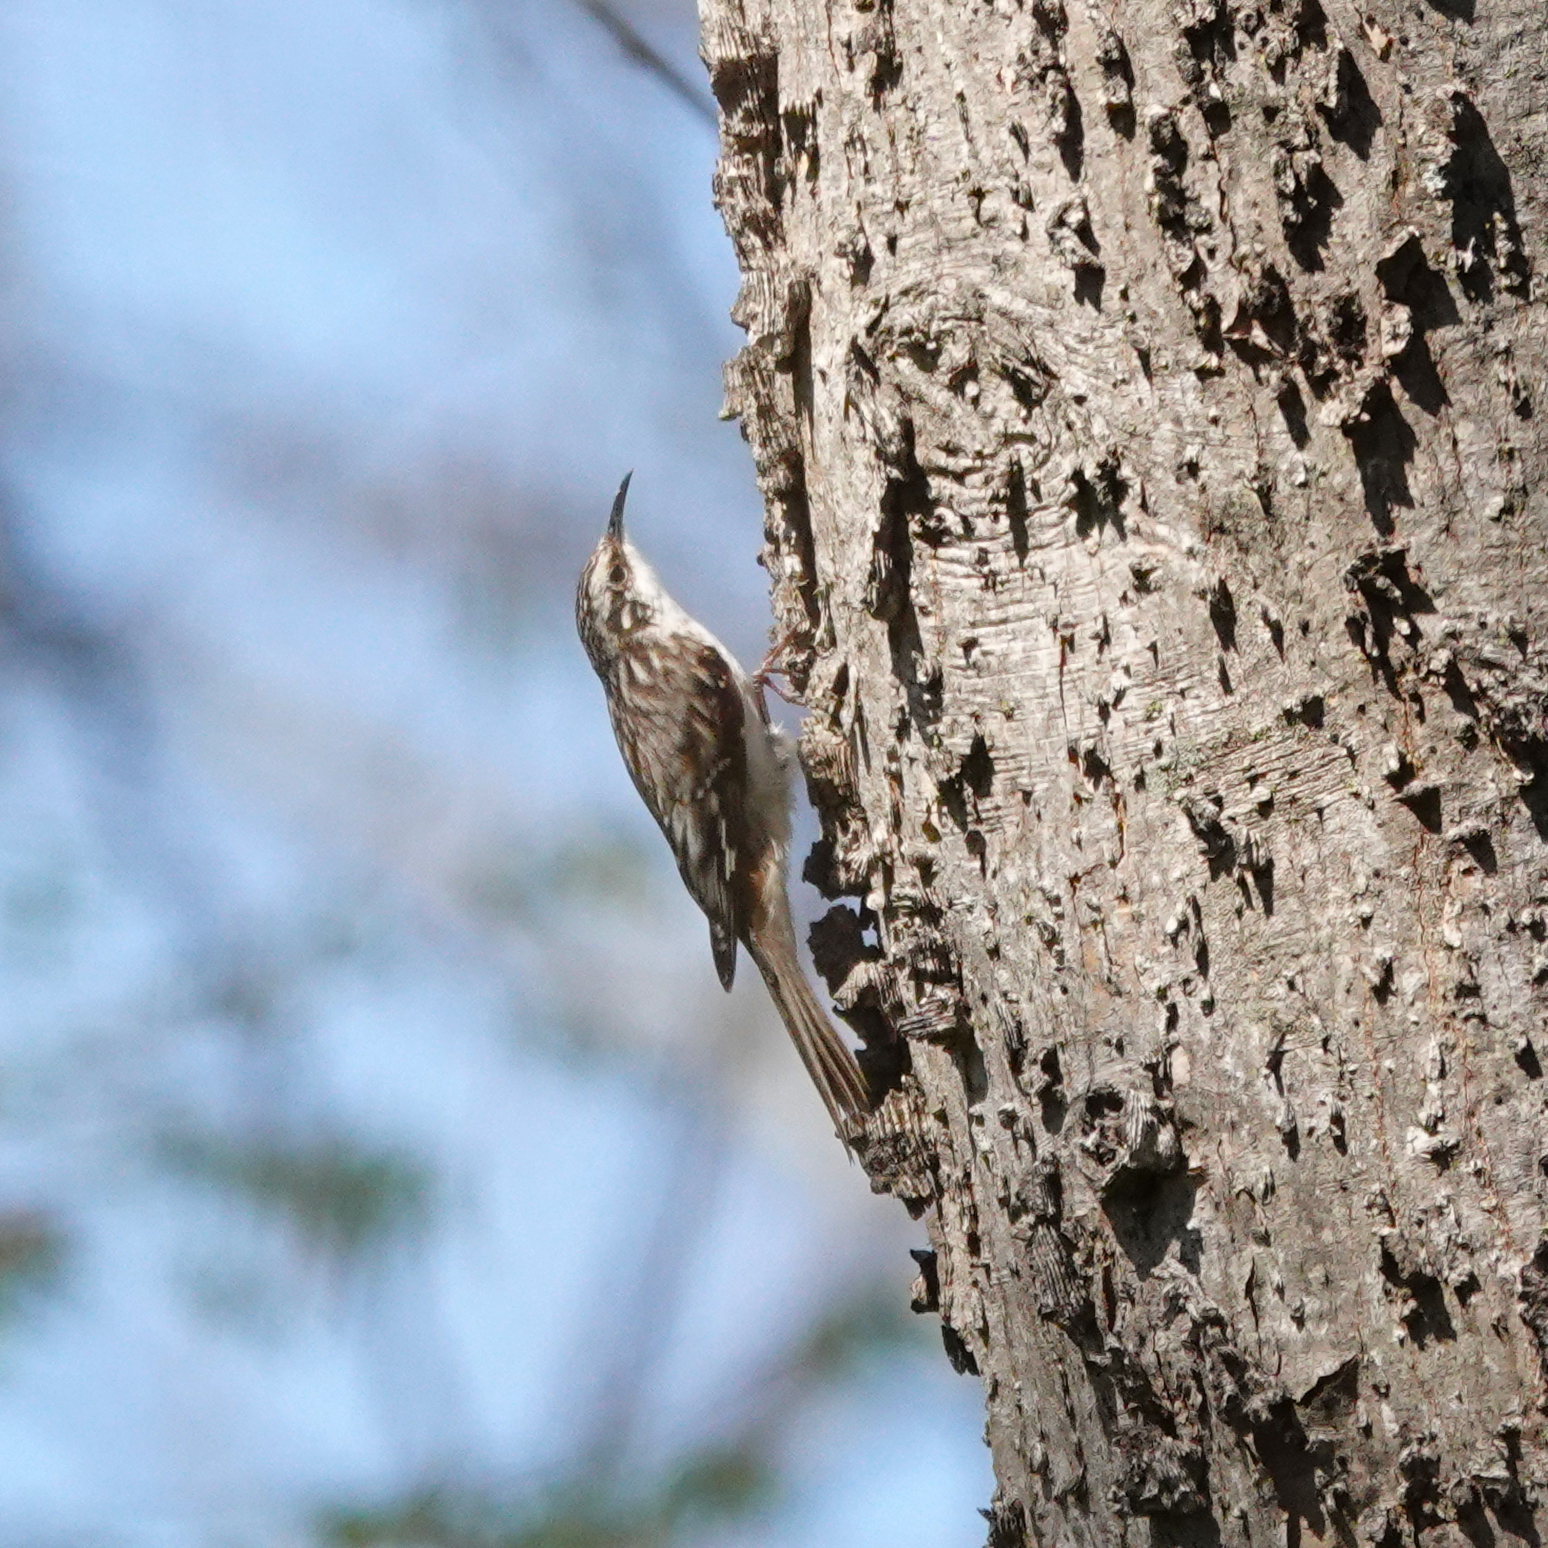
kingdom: Animalia
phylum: Chordata
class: Aves
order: Passeriformes
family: Certhiidae
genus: Certhia
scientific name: Certhia americana
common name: Brown creeper
